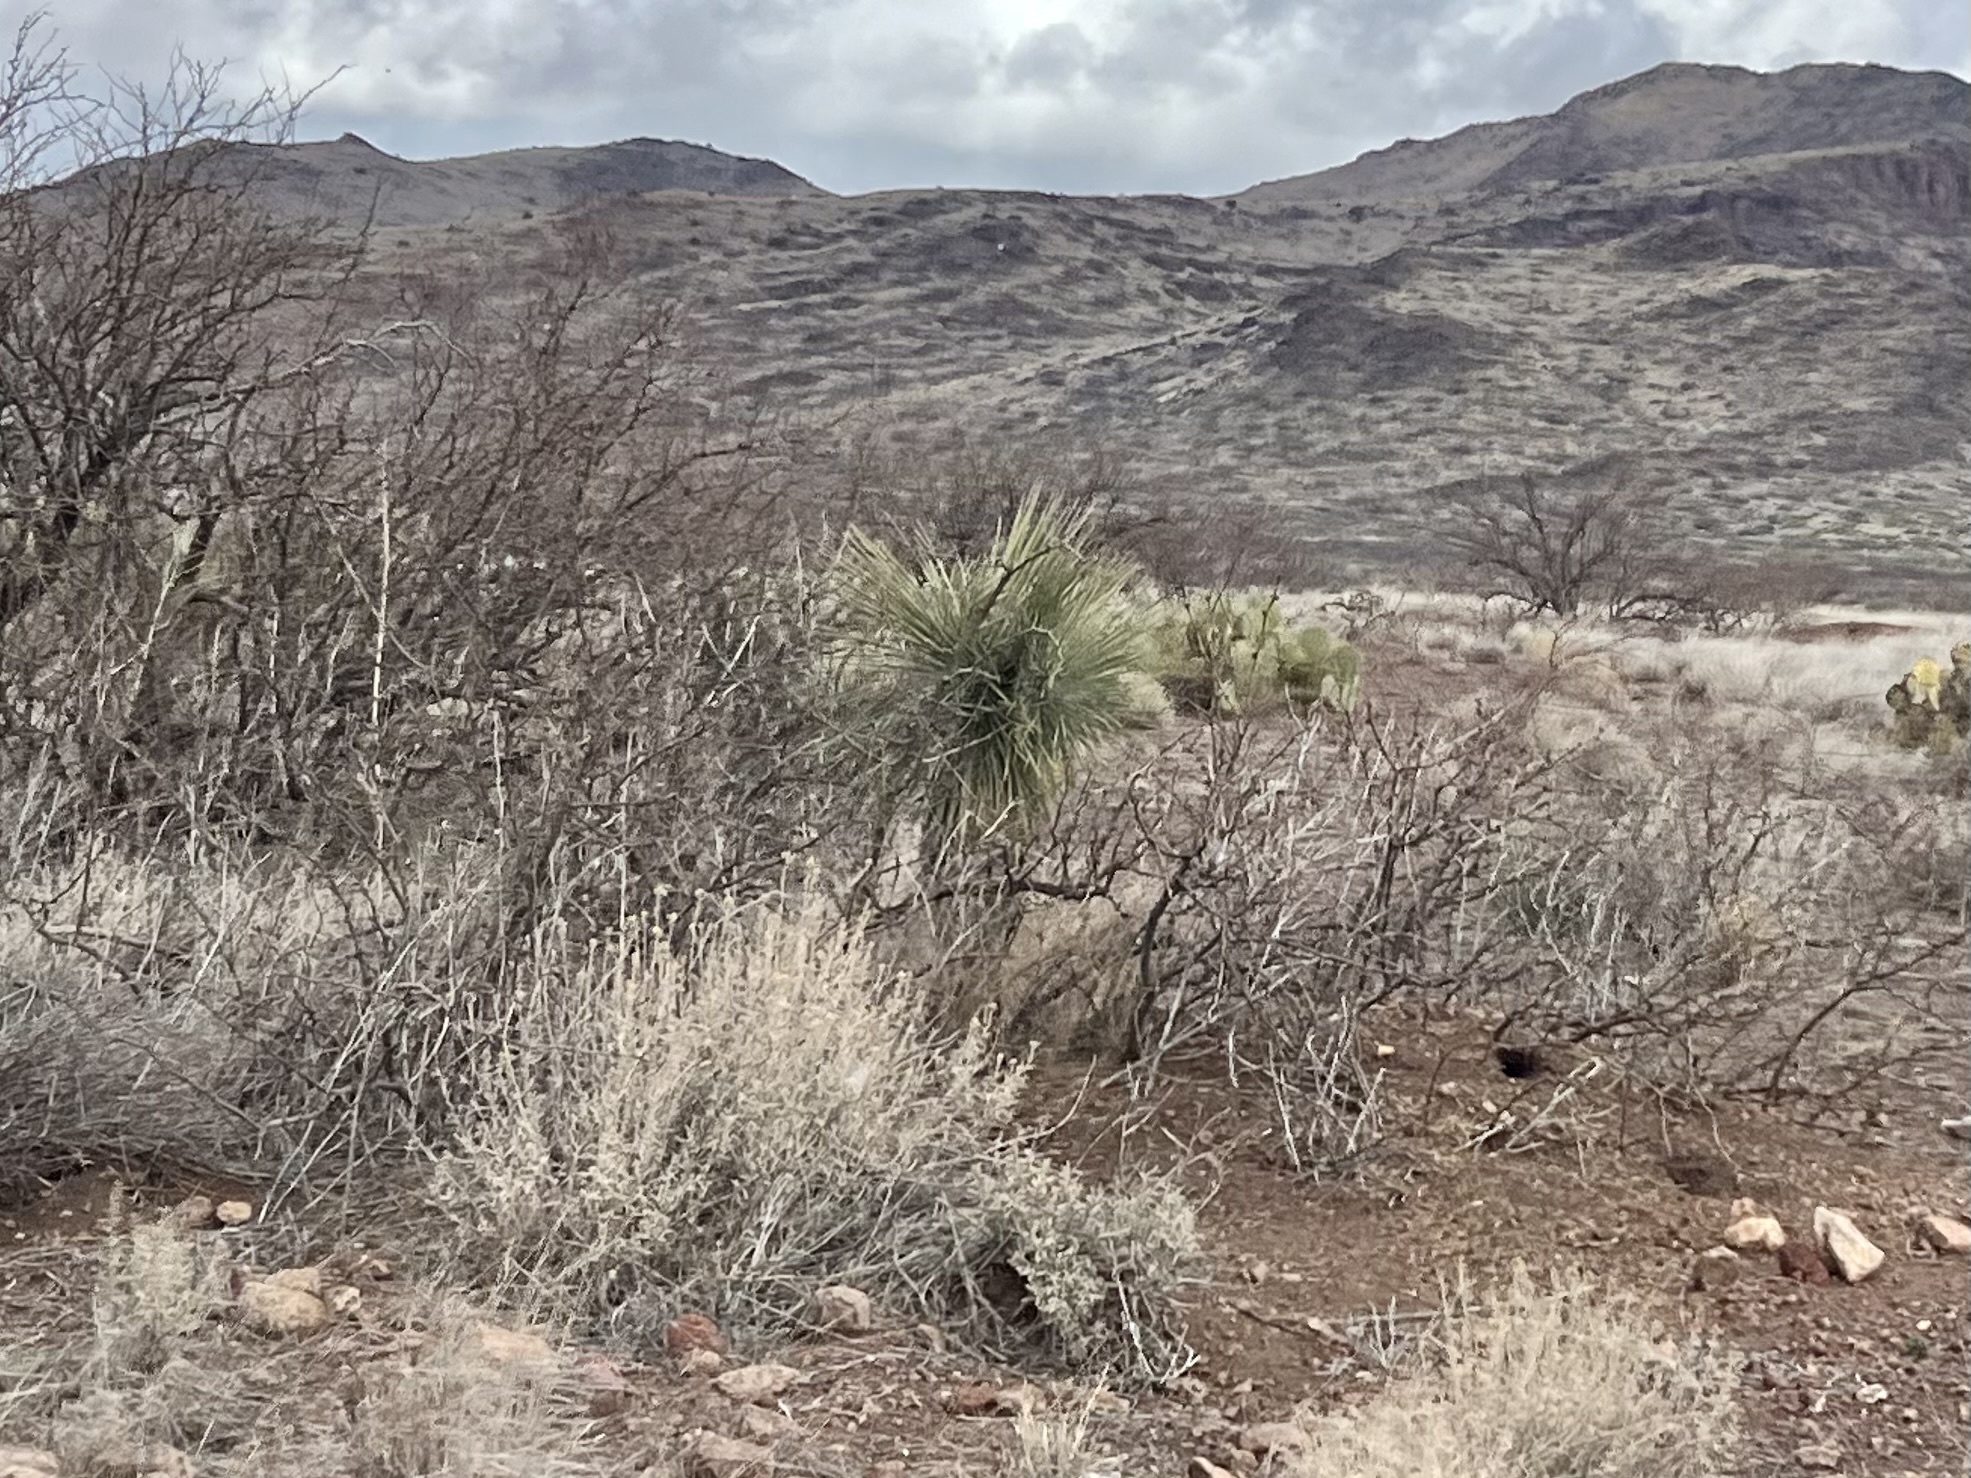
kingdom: Plantae
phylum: Tracheophyta
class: Liliopsida
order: Asparagales
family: Asparagaceae
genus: Yucca
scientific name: Yucca elata
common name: Palmella
